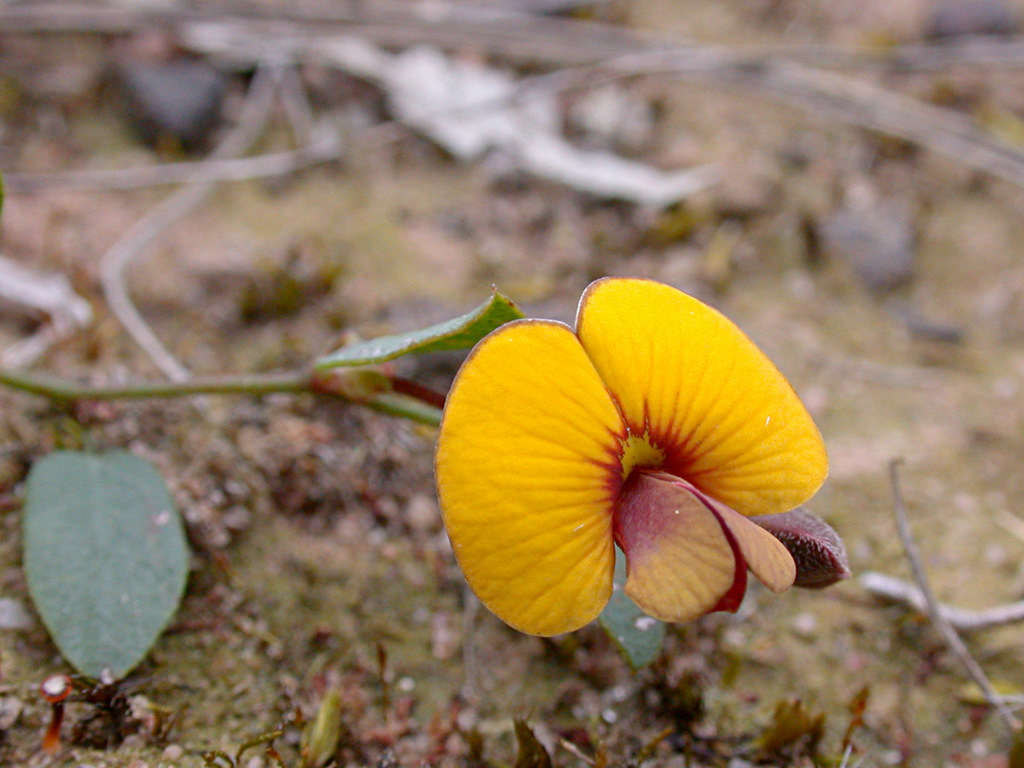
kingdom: Plantae
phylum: Tracheophyta
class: Magnoliopsida
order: Fabales
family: Fabaceae
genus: Bossiaea
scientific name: Bossiaea prostrata
